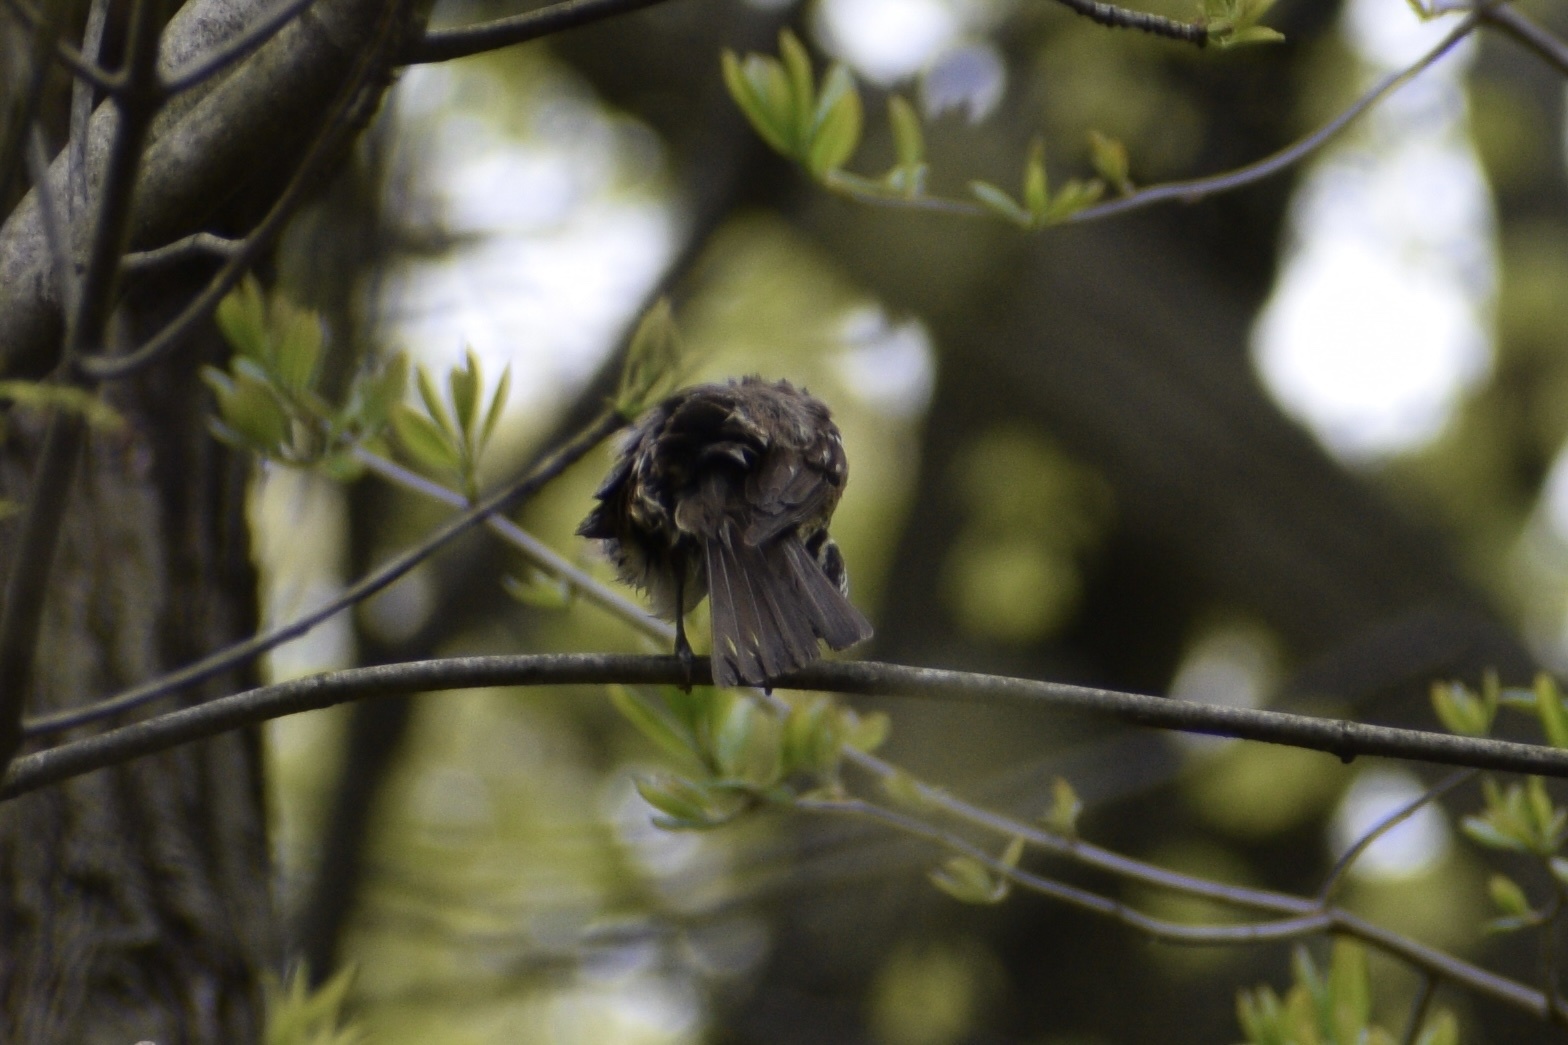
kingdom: Animalia
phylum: Chordata
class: Aves
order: Passeriformes
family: Cardinalidae
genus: Pheucticus
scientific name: Pheucticus ludovicianus
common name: Rose-breasted grosbeak
